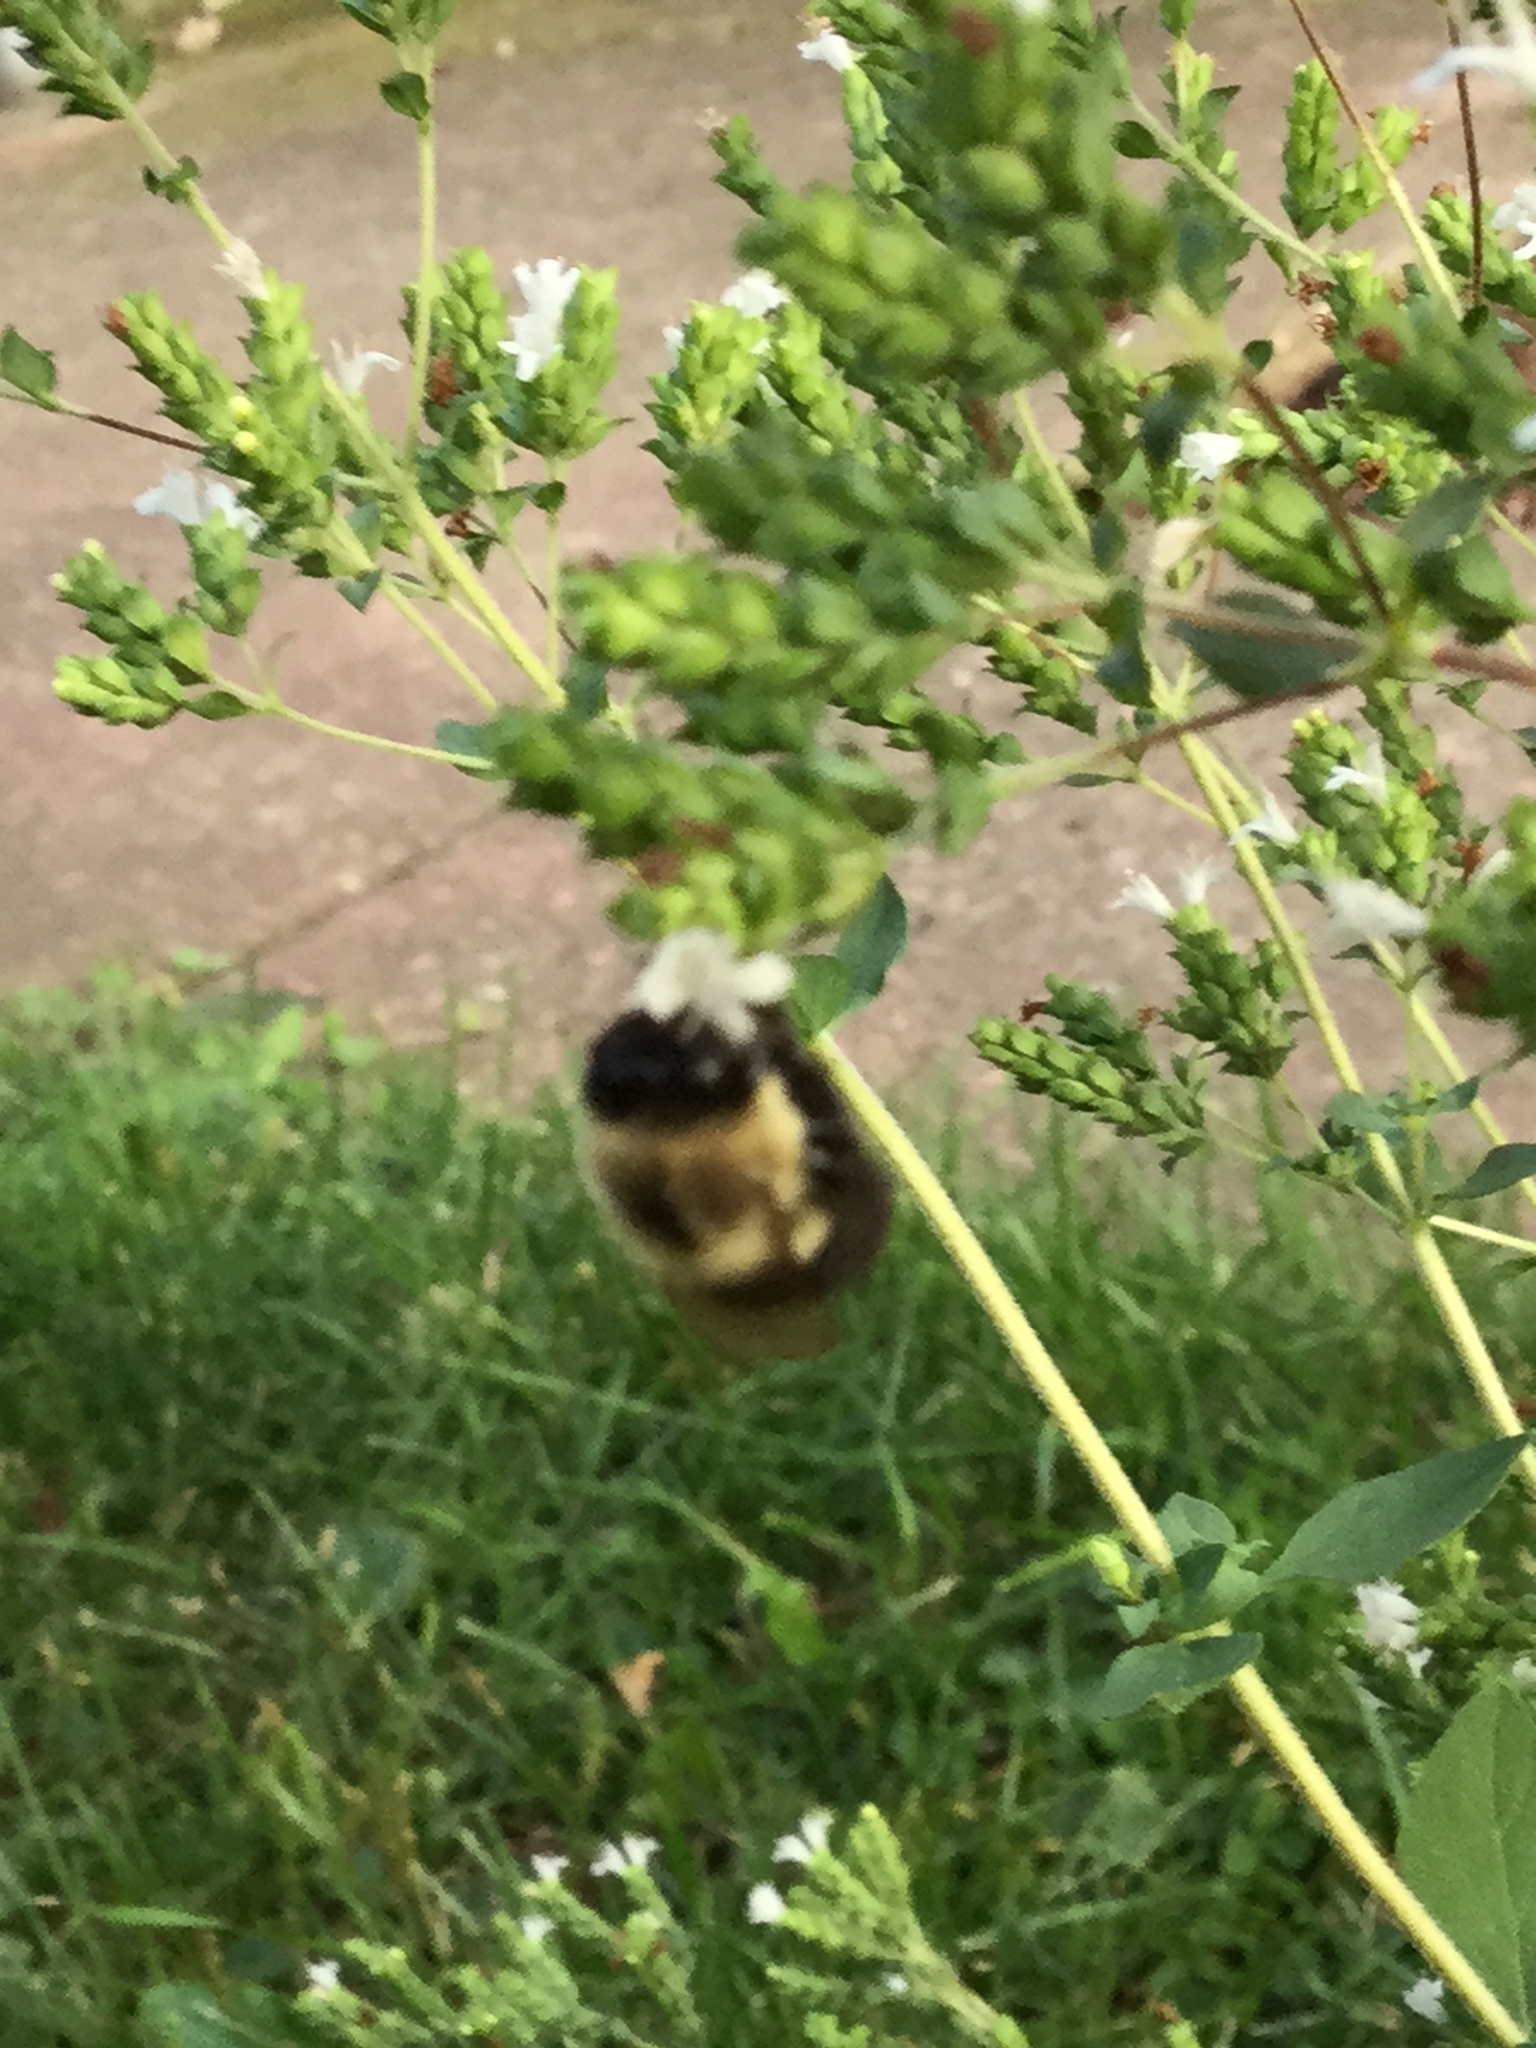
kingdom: Animalia
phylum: Arthropoda
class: Insecta
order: Hymenoptera
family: Apidae
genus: Bombus
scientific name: Bombus impatiens
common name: Common eastern bumble bee
